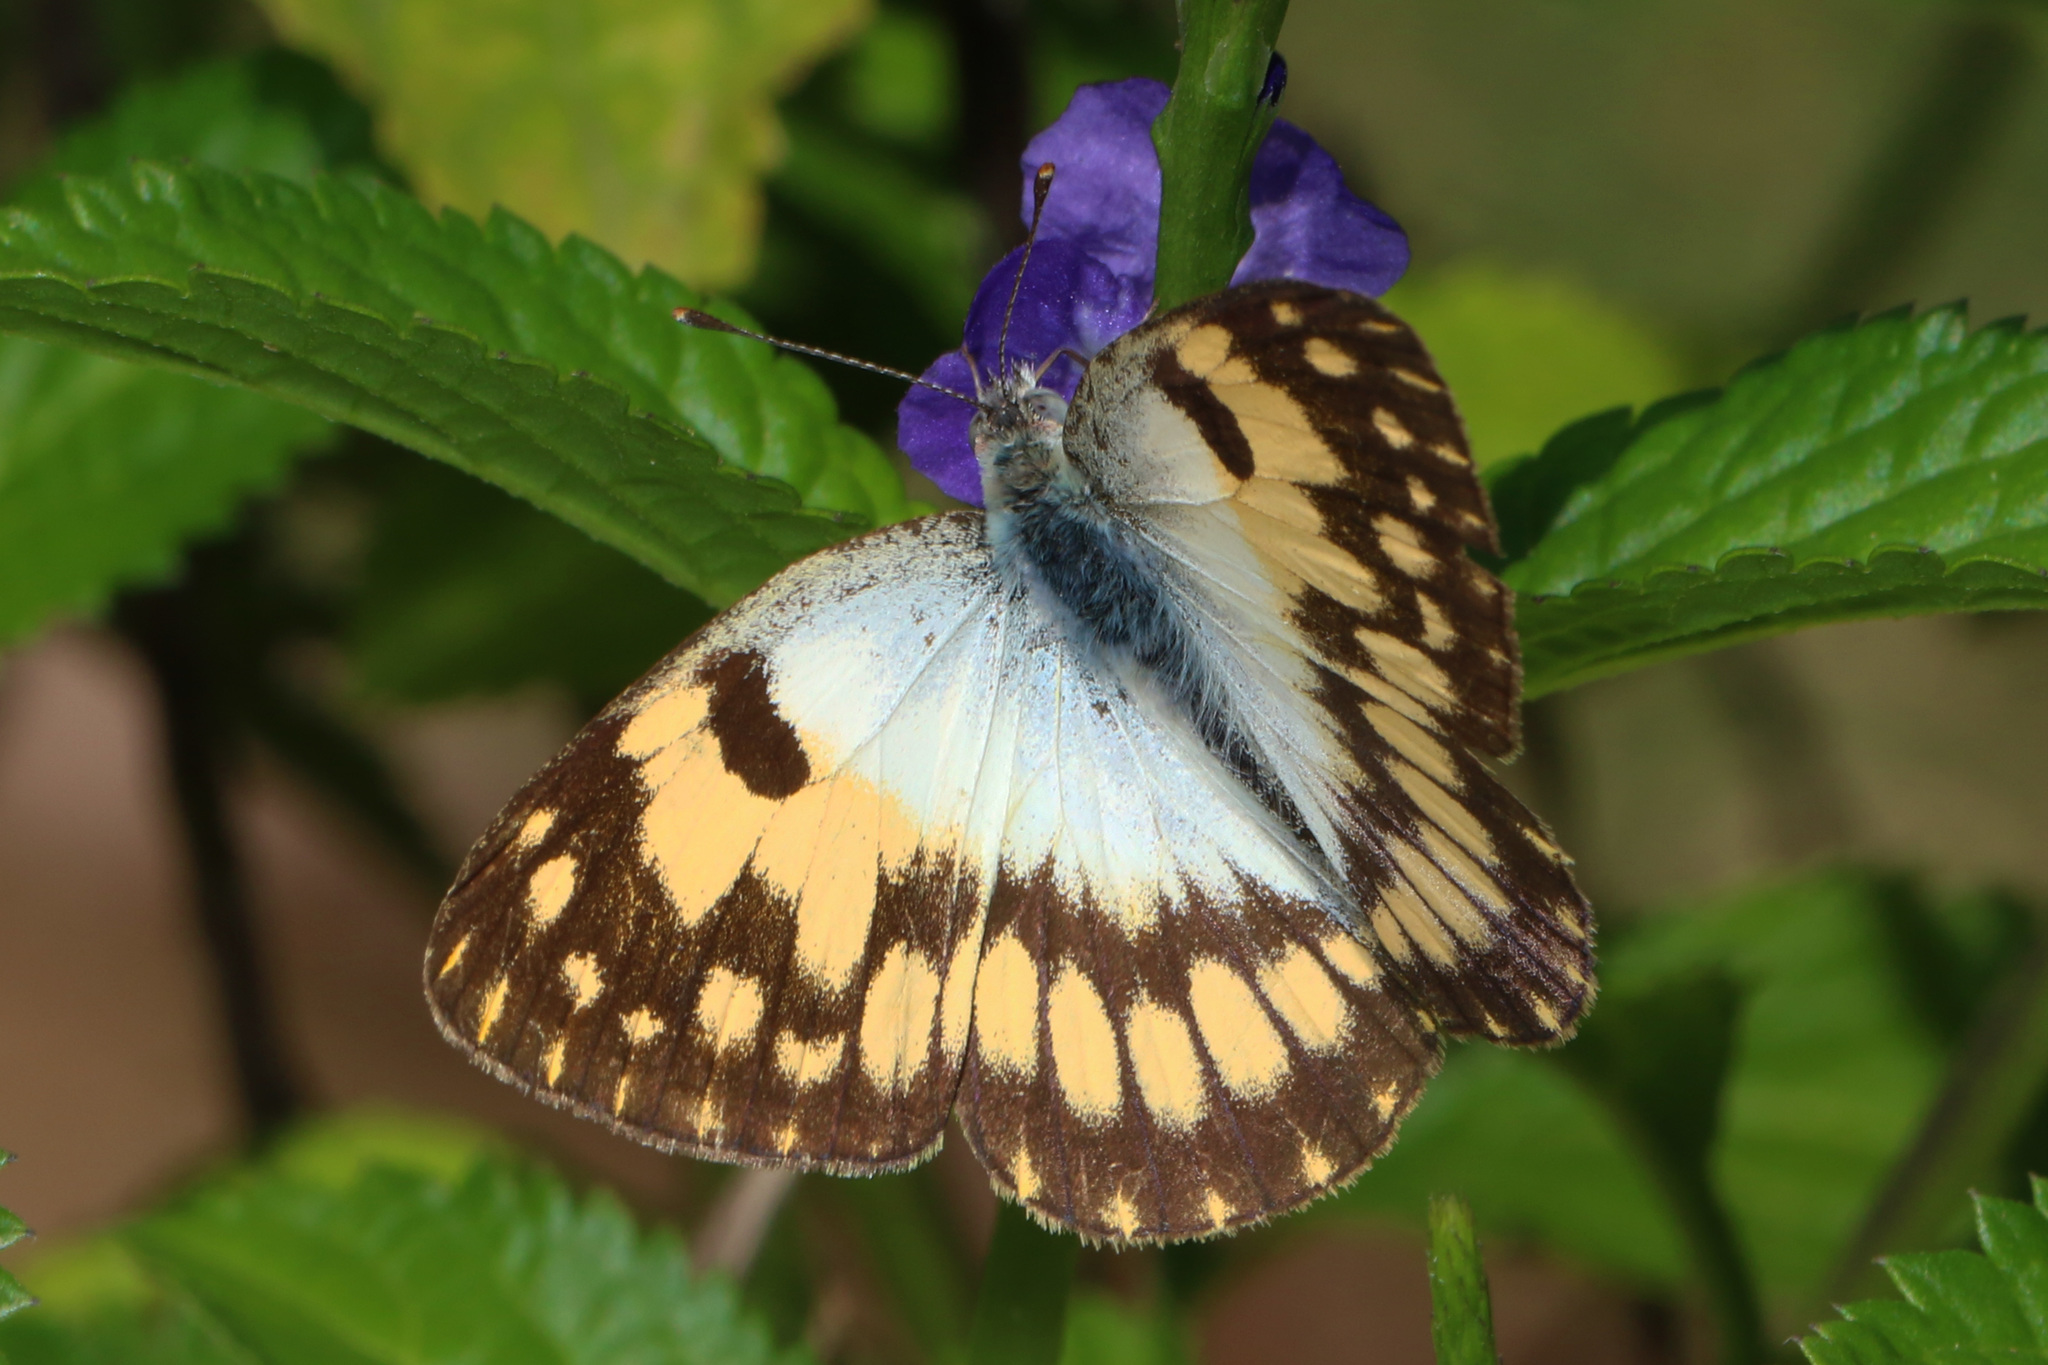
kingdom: Animalia
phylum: Arthropoda
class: Insecta
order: Lepidoptera
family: Pieridae
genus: Colotis
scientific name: Colotis vesta
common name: Veined golden arab
